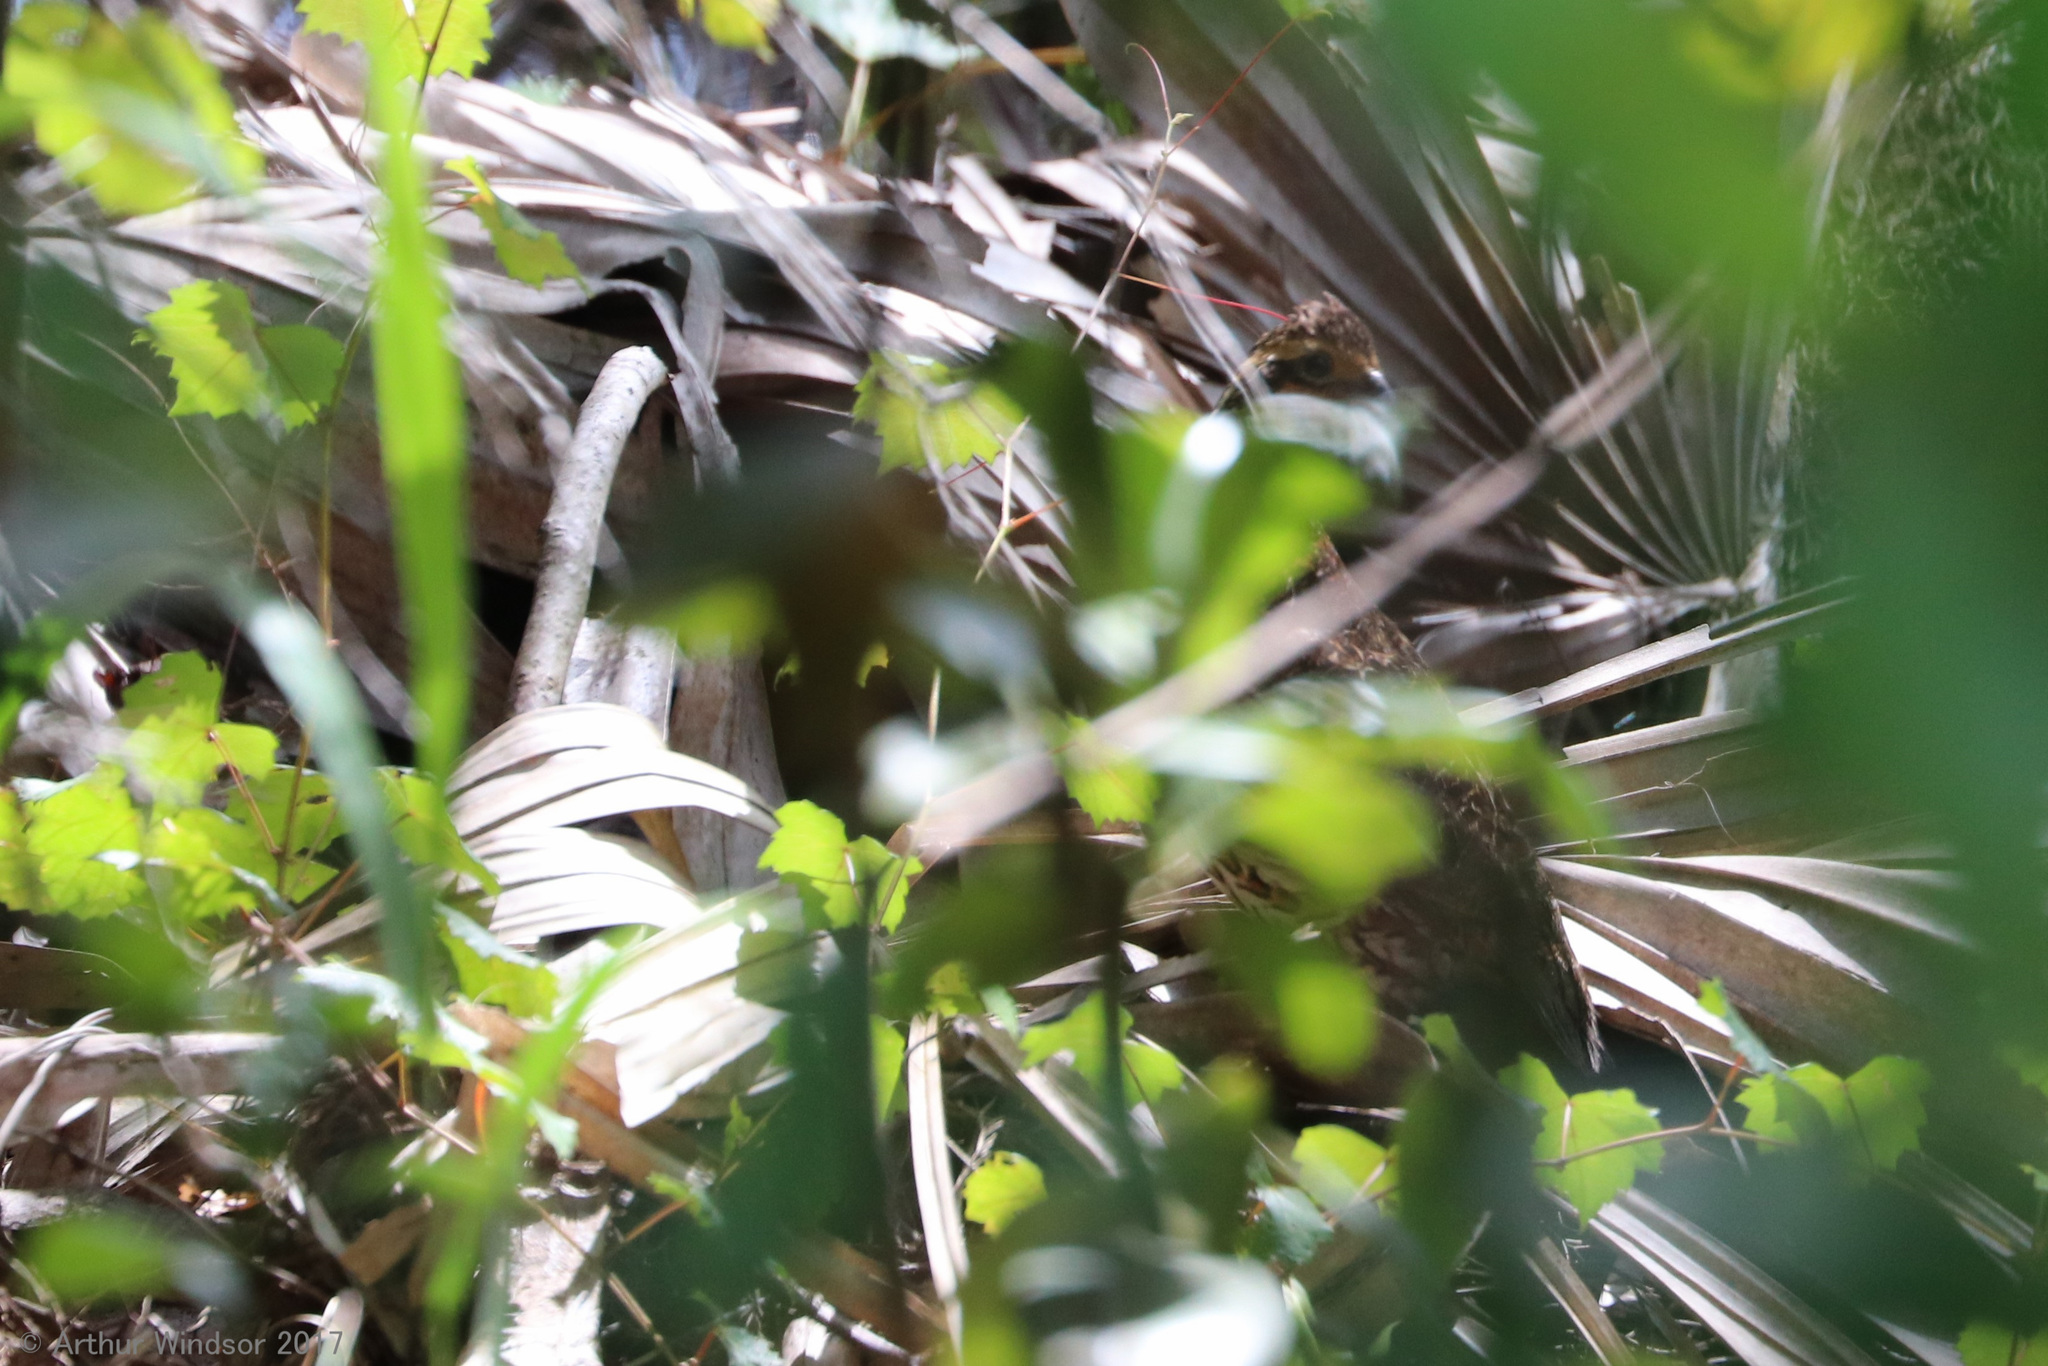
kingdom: Animalia
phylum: Chordata
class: Aves
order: Galliformes
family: Odontophoridae
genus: Colinus
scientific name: Colinus virginianus
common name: Northern bobwhite
